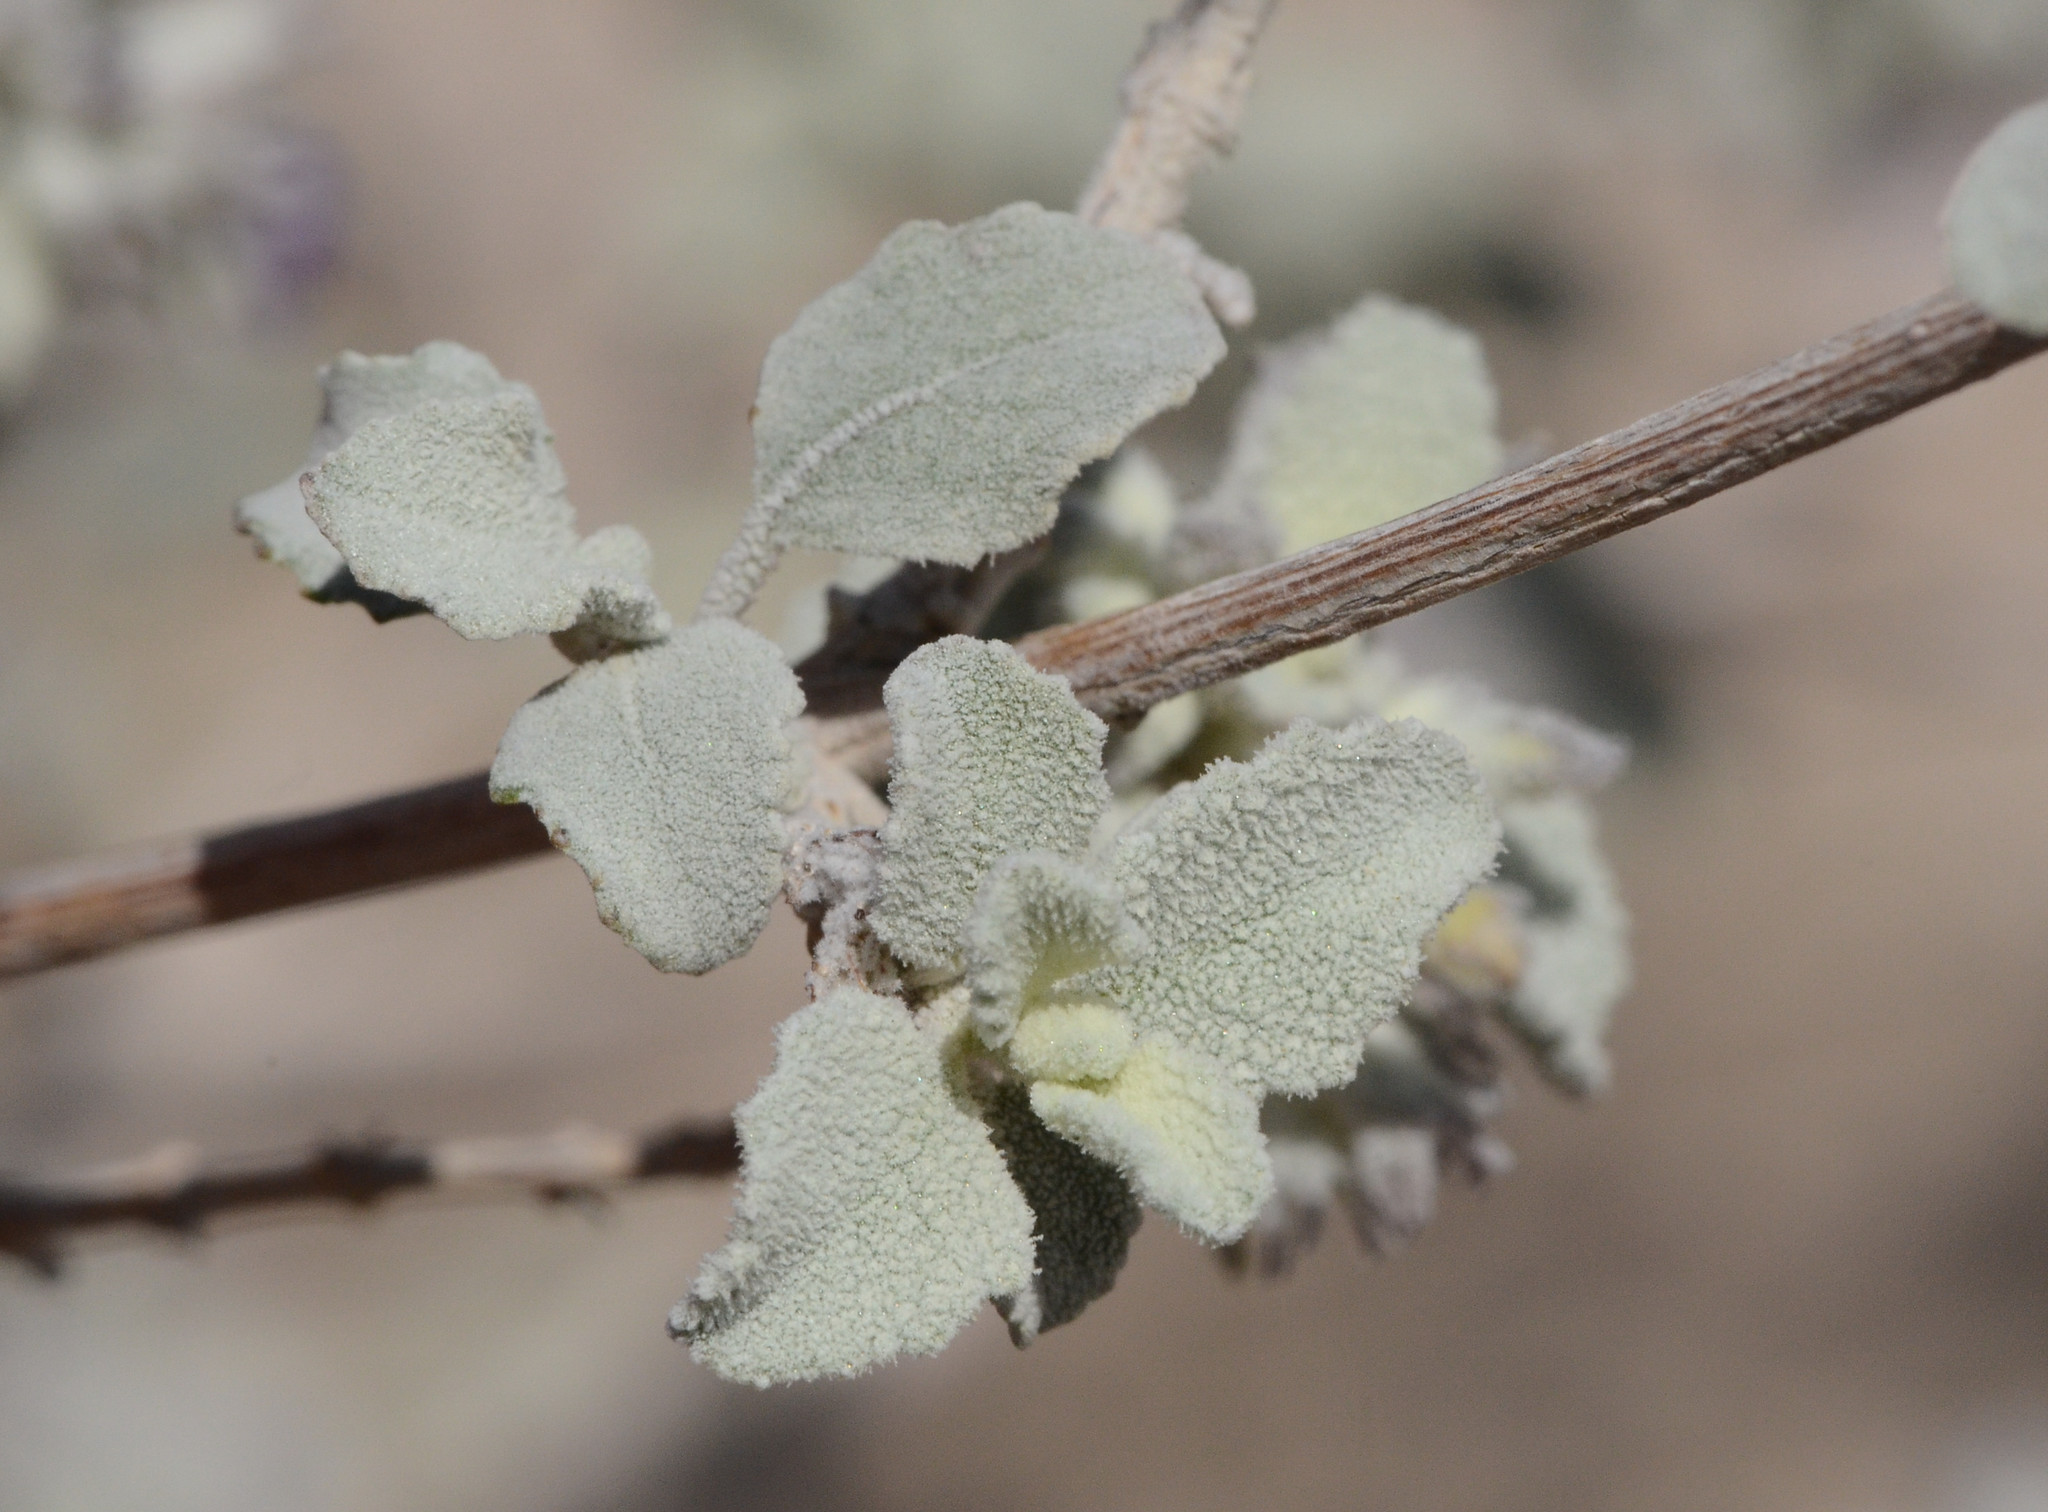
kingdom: Plantae
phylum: Tracheophyta
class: Magnoliopsida
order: Lamiales
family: Lamiaceae
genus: Condea
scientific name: Condea emoryi
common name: Chia
